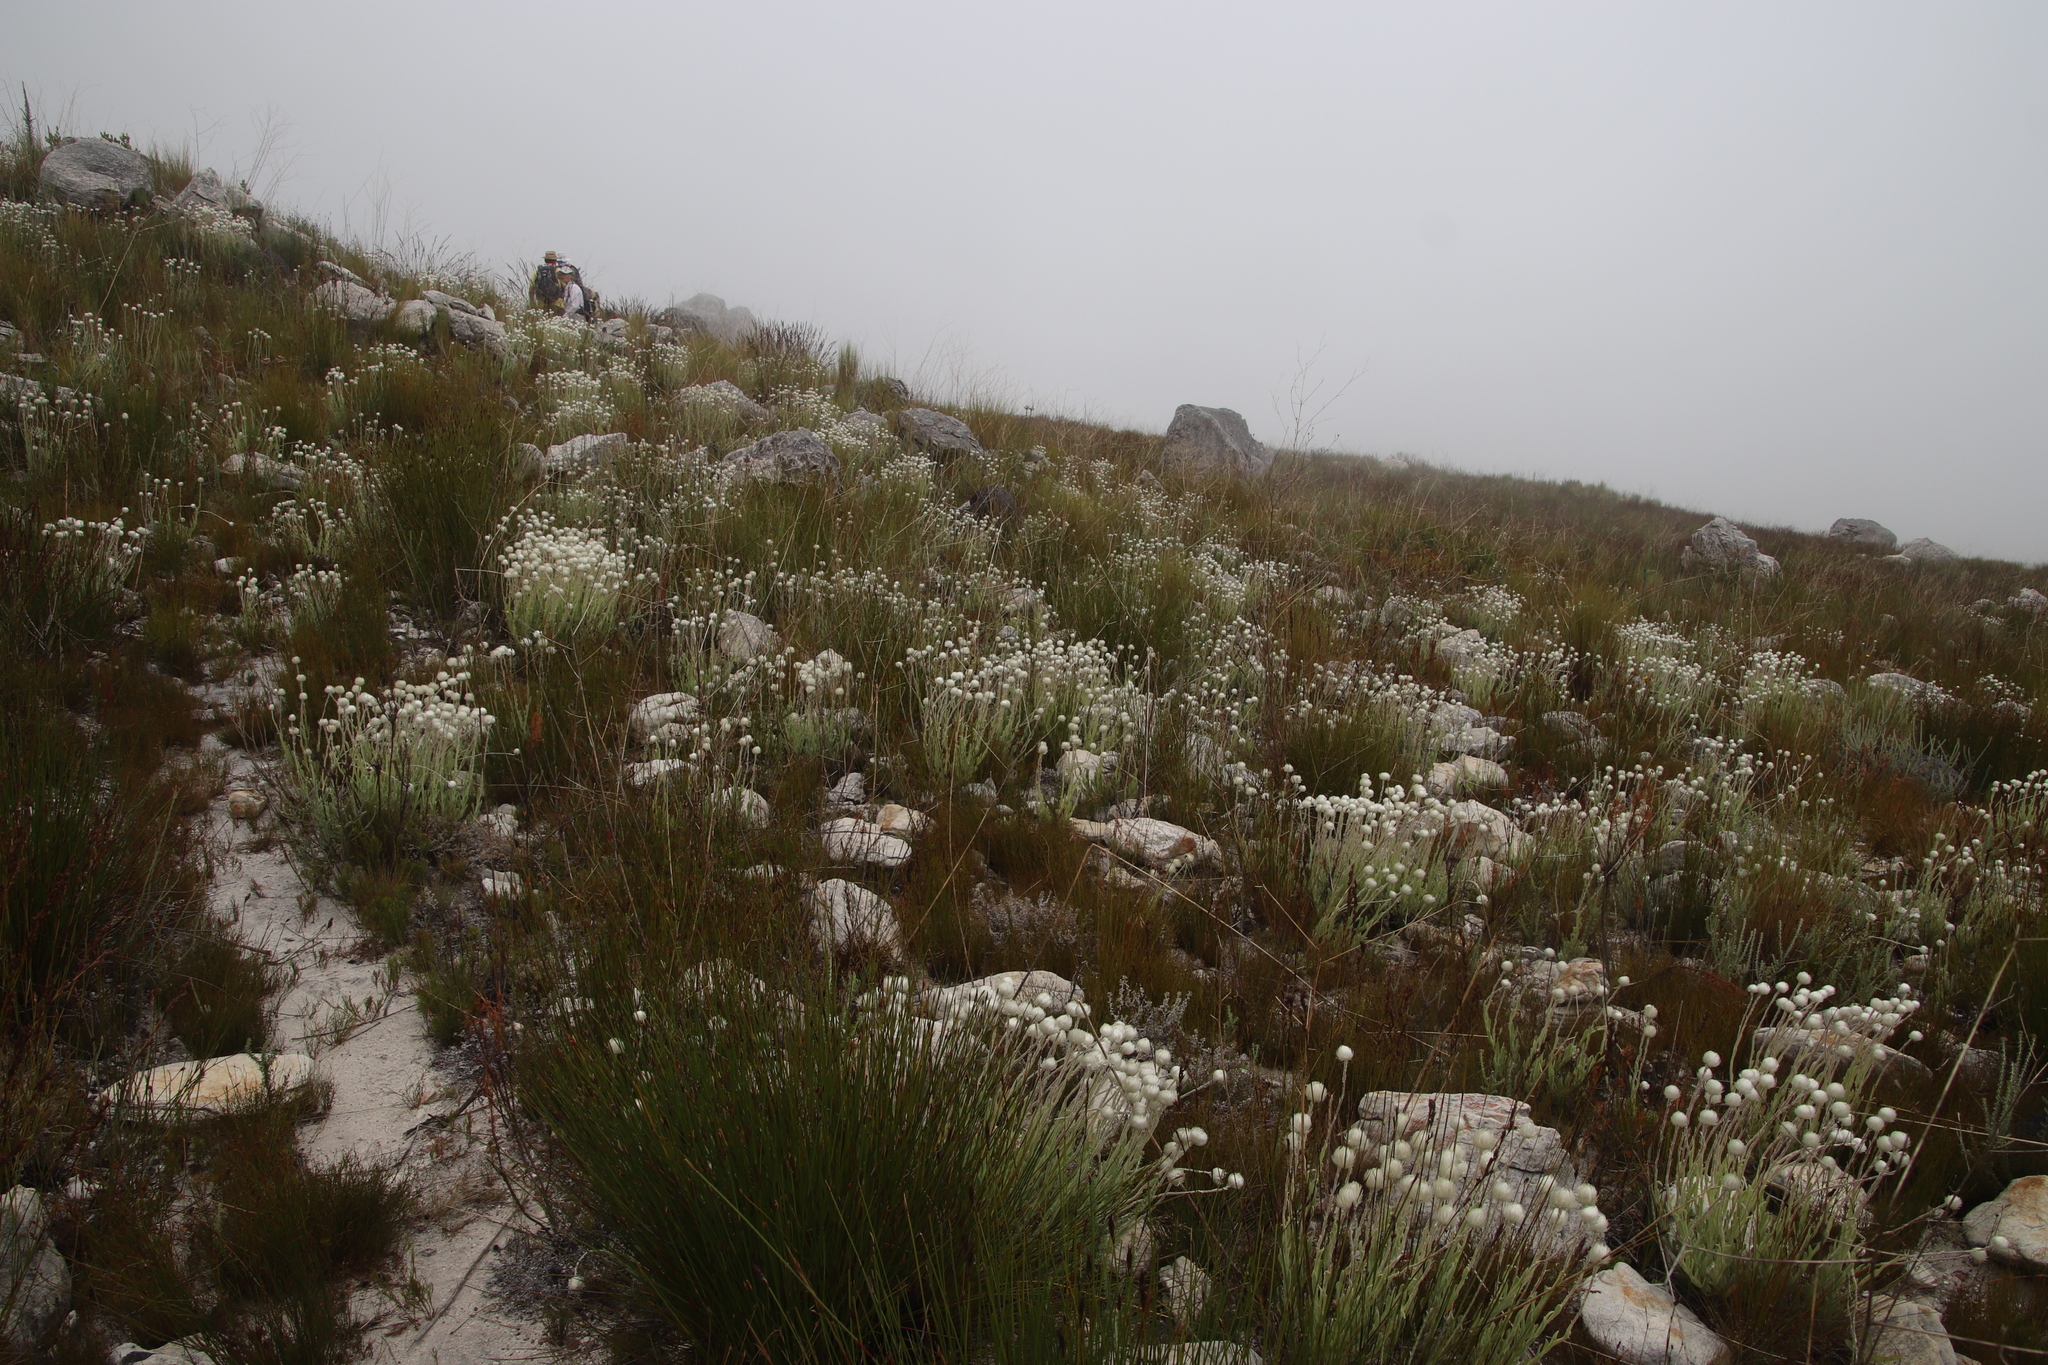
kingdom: Plantae
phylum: Tracheophyta
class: Magnoliopsida
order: Asterales
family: Asteraceae
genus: Syncarpha
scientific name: Syncarpha vestita
